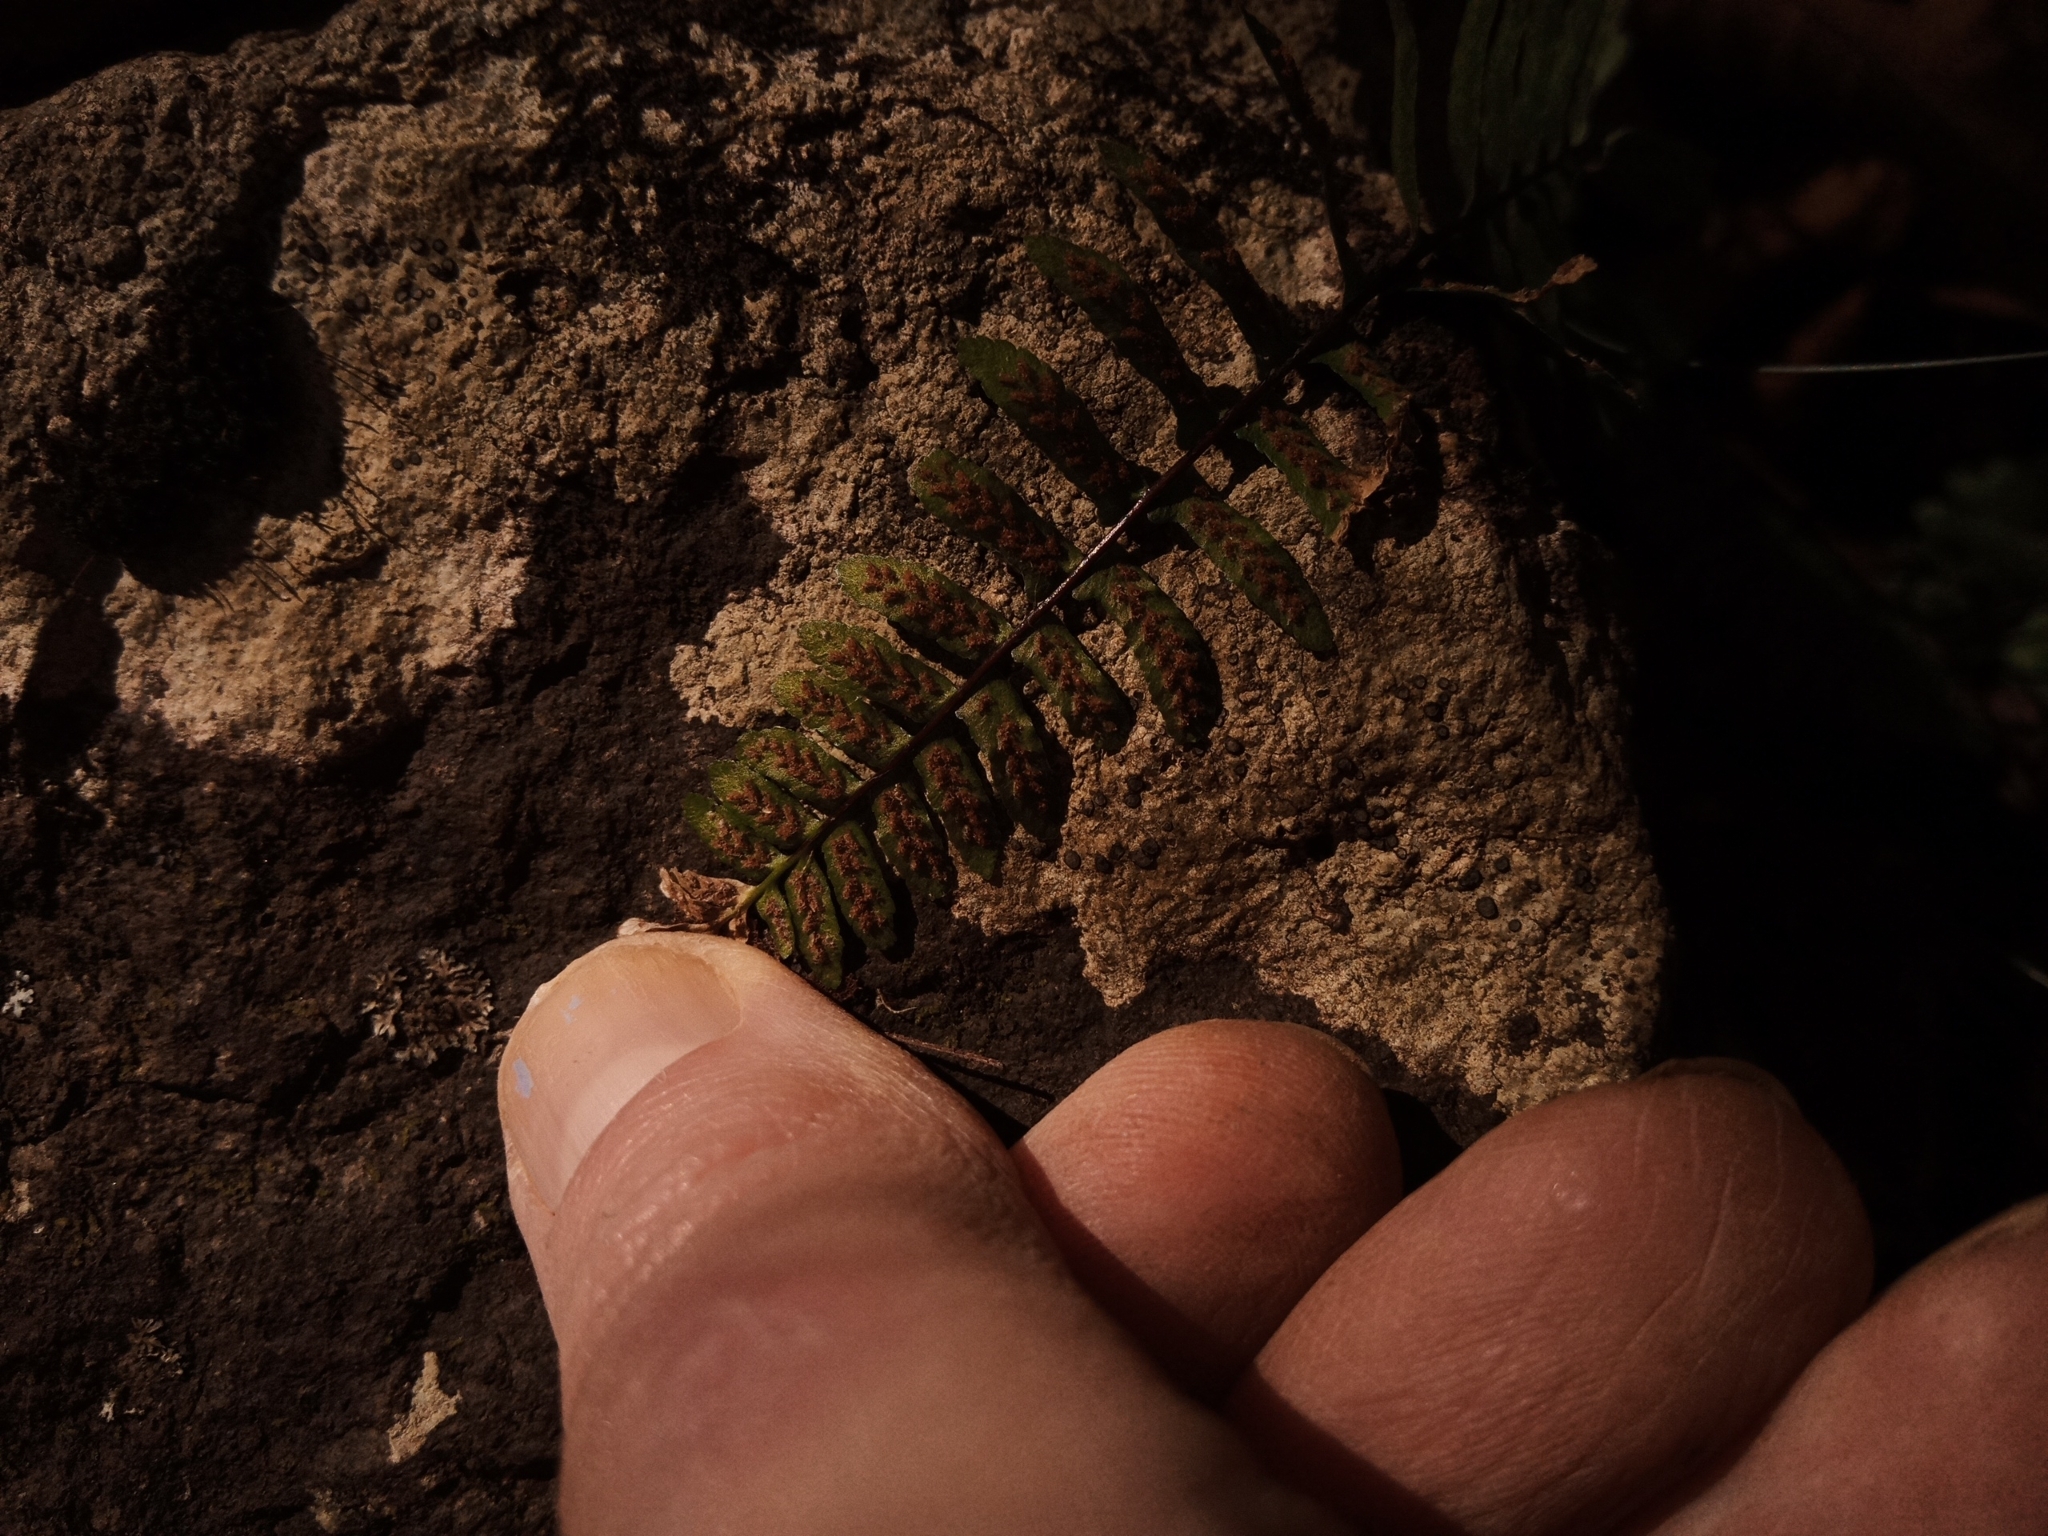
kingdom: Plantae
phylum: Tracheophyta
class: Polypodiopsida
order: Polypodiales
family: Aspleniaceae
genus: Asplenium
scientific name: Asplenium platyneuron
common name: Ebony spleenwort
